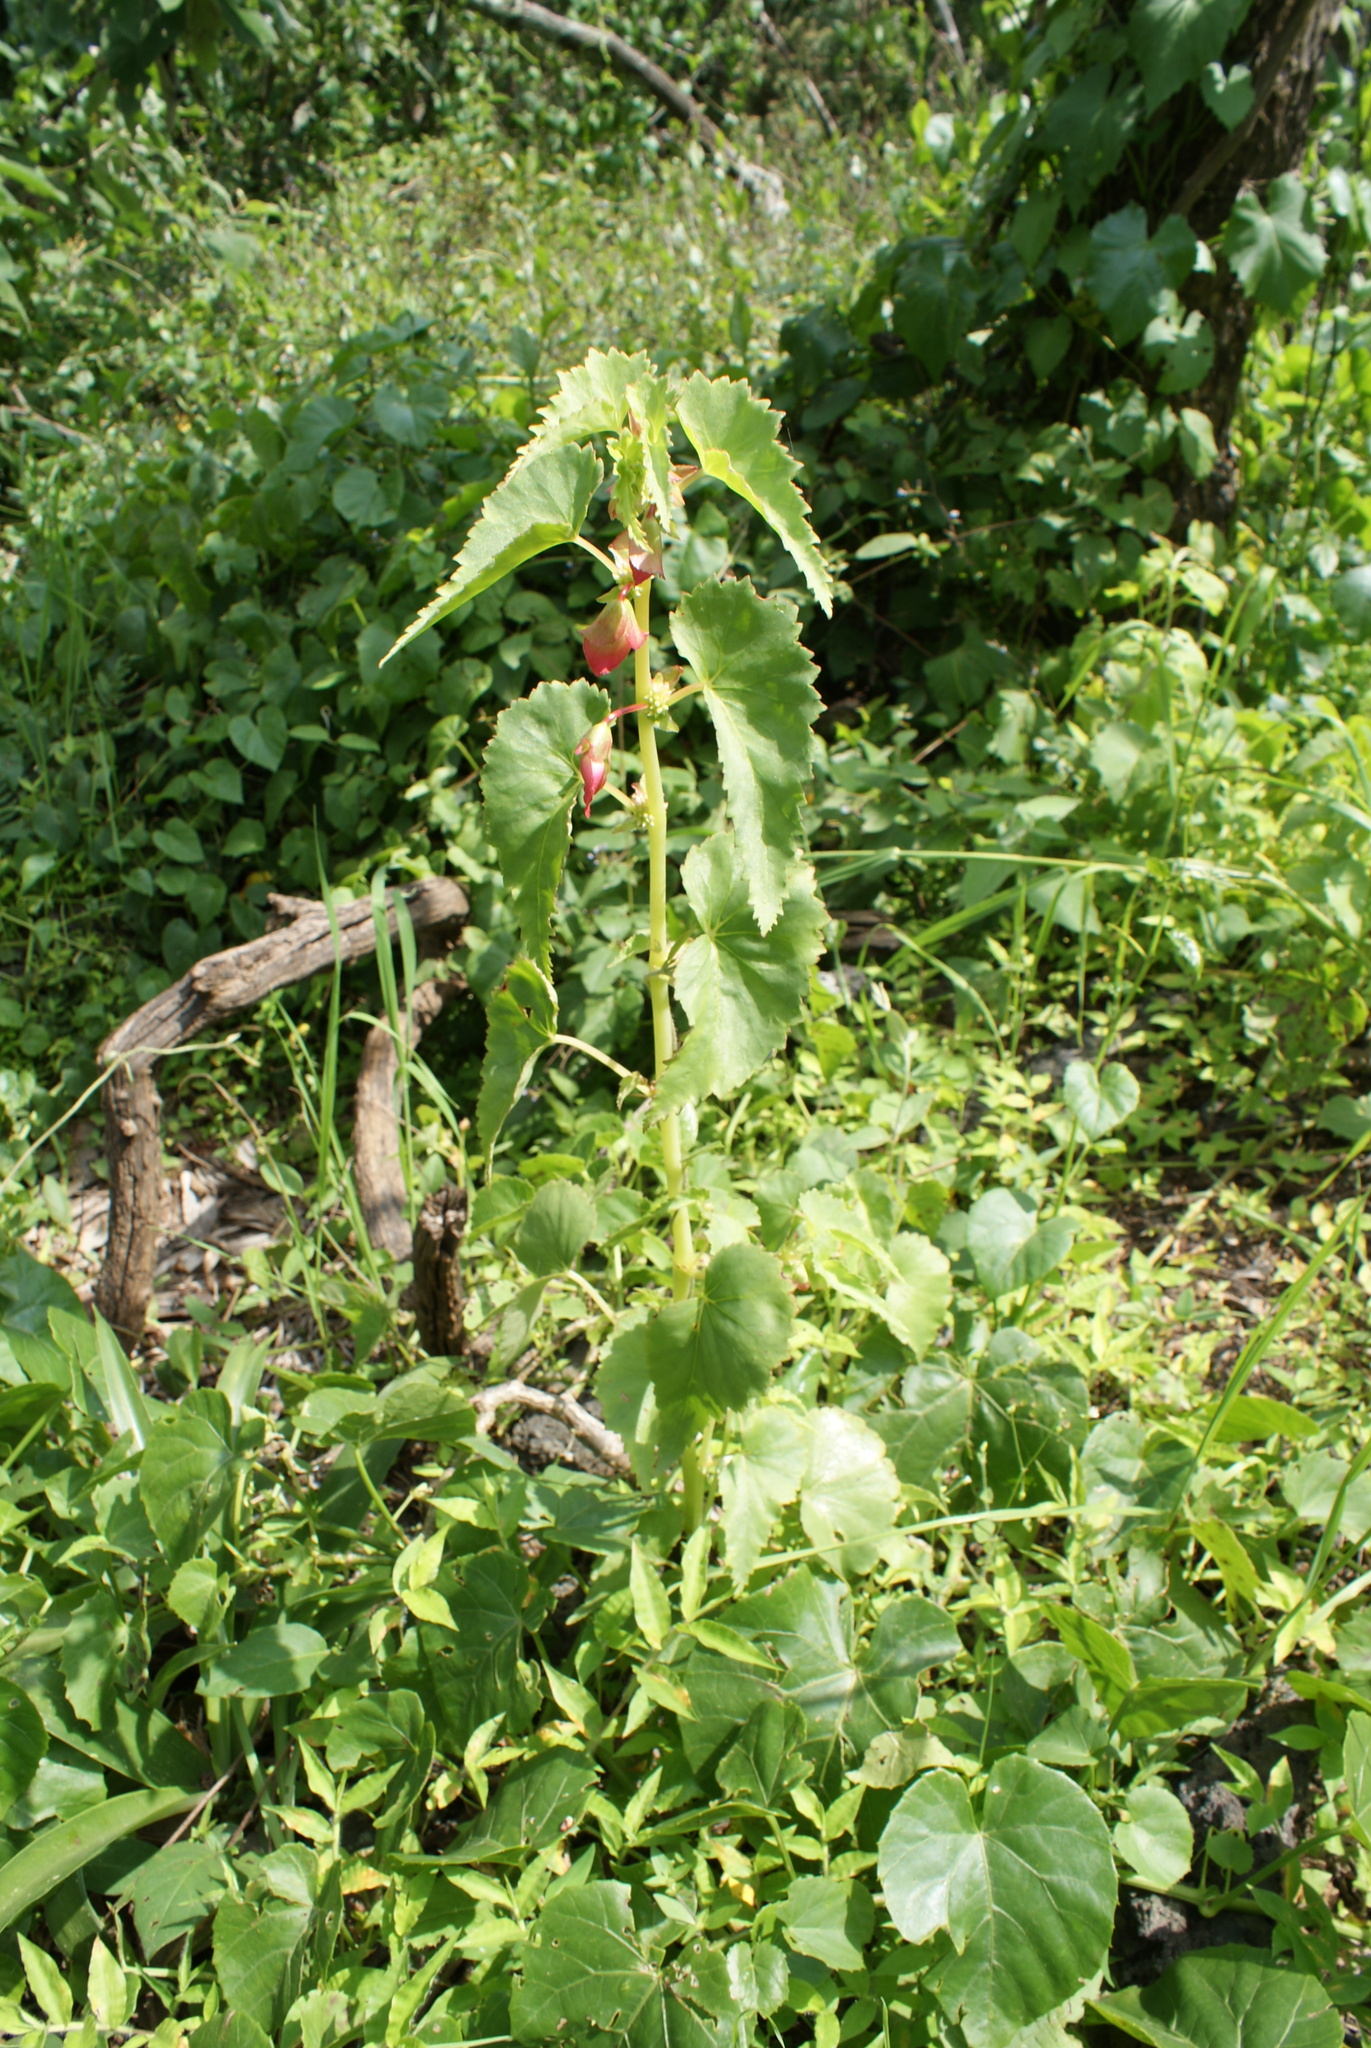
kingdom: Plantae
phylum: Tracheophyta
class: Magnoliopsida
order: Cucurbitales
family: Begoniaceae
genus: Begonia
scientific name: Begonia gracilis
